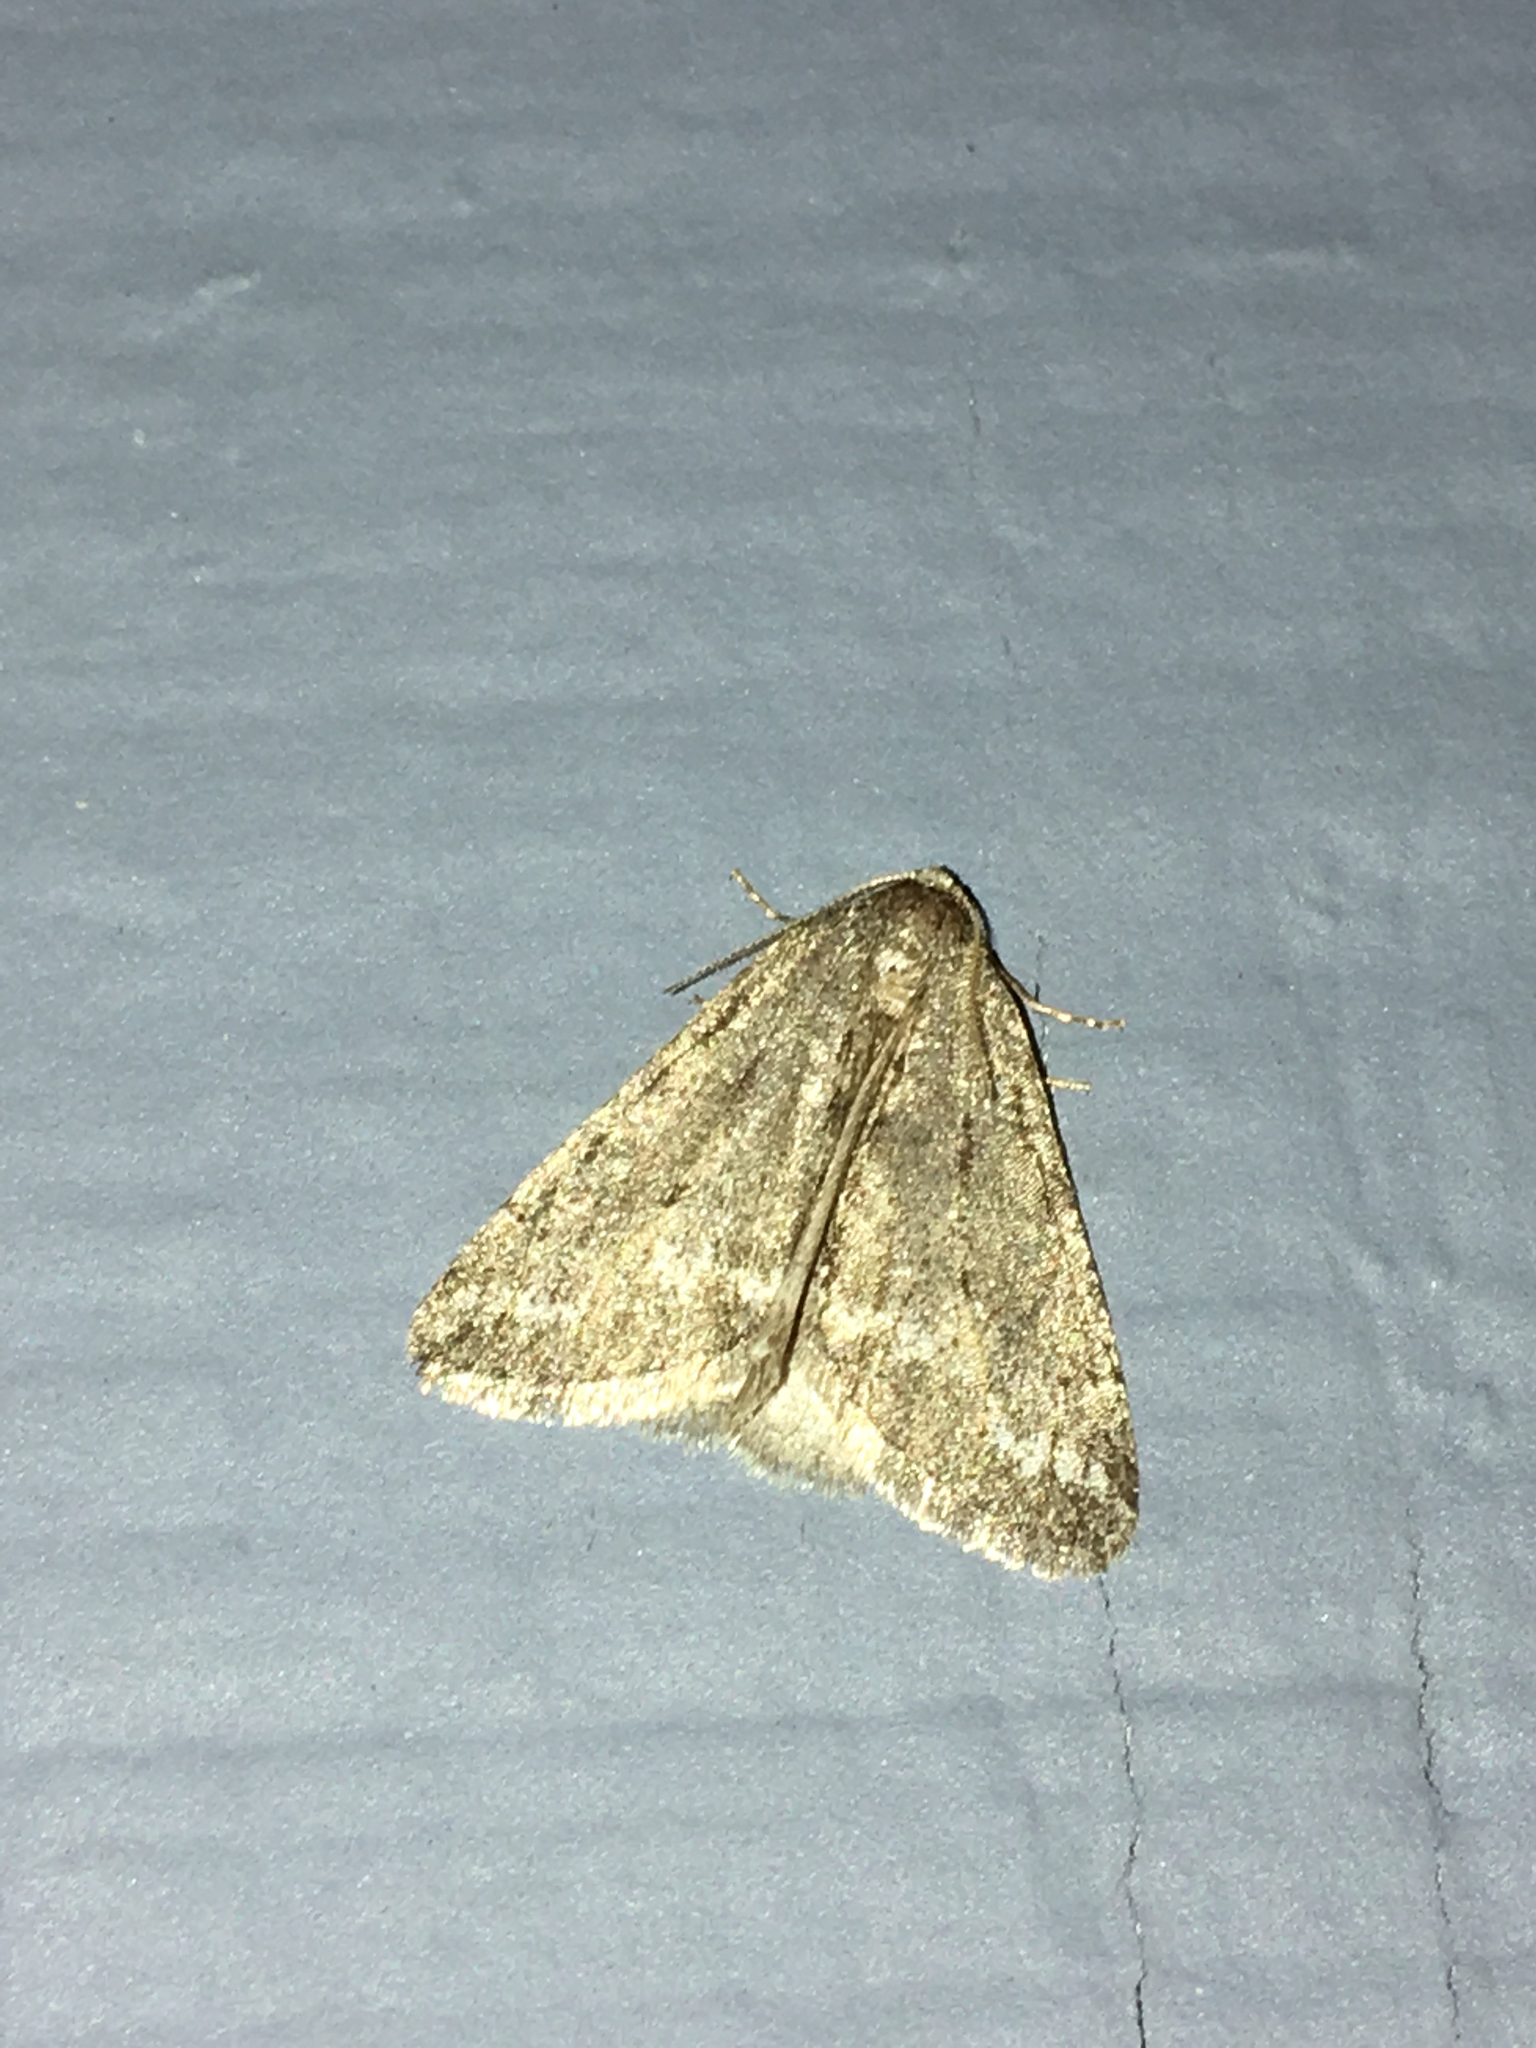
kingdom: Animalia
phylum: Arthropoda
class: Insecta
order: Lepidoptera
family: Geometridae
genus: Paleacrita
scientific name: Paleacrita vernata
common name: Spring cankerworm
